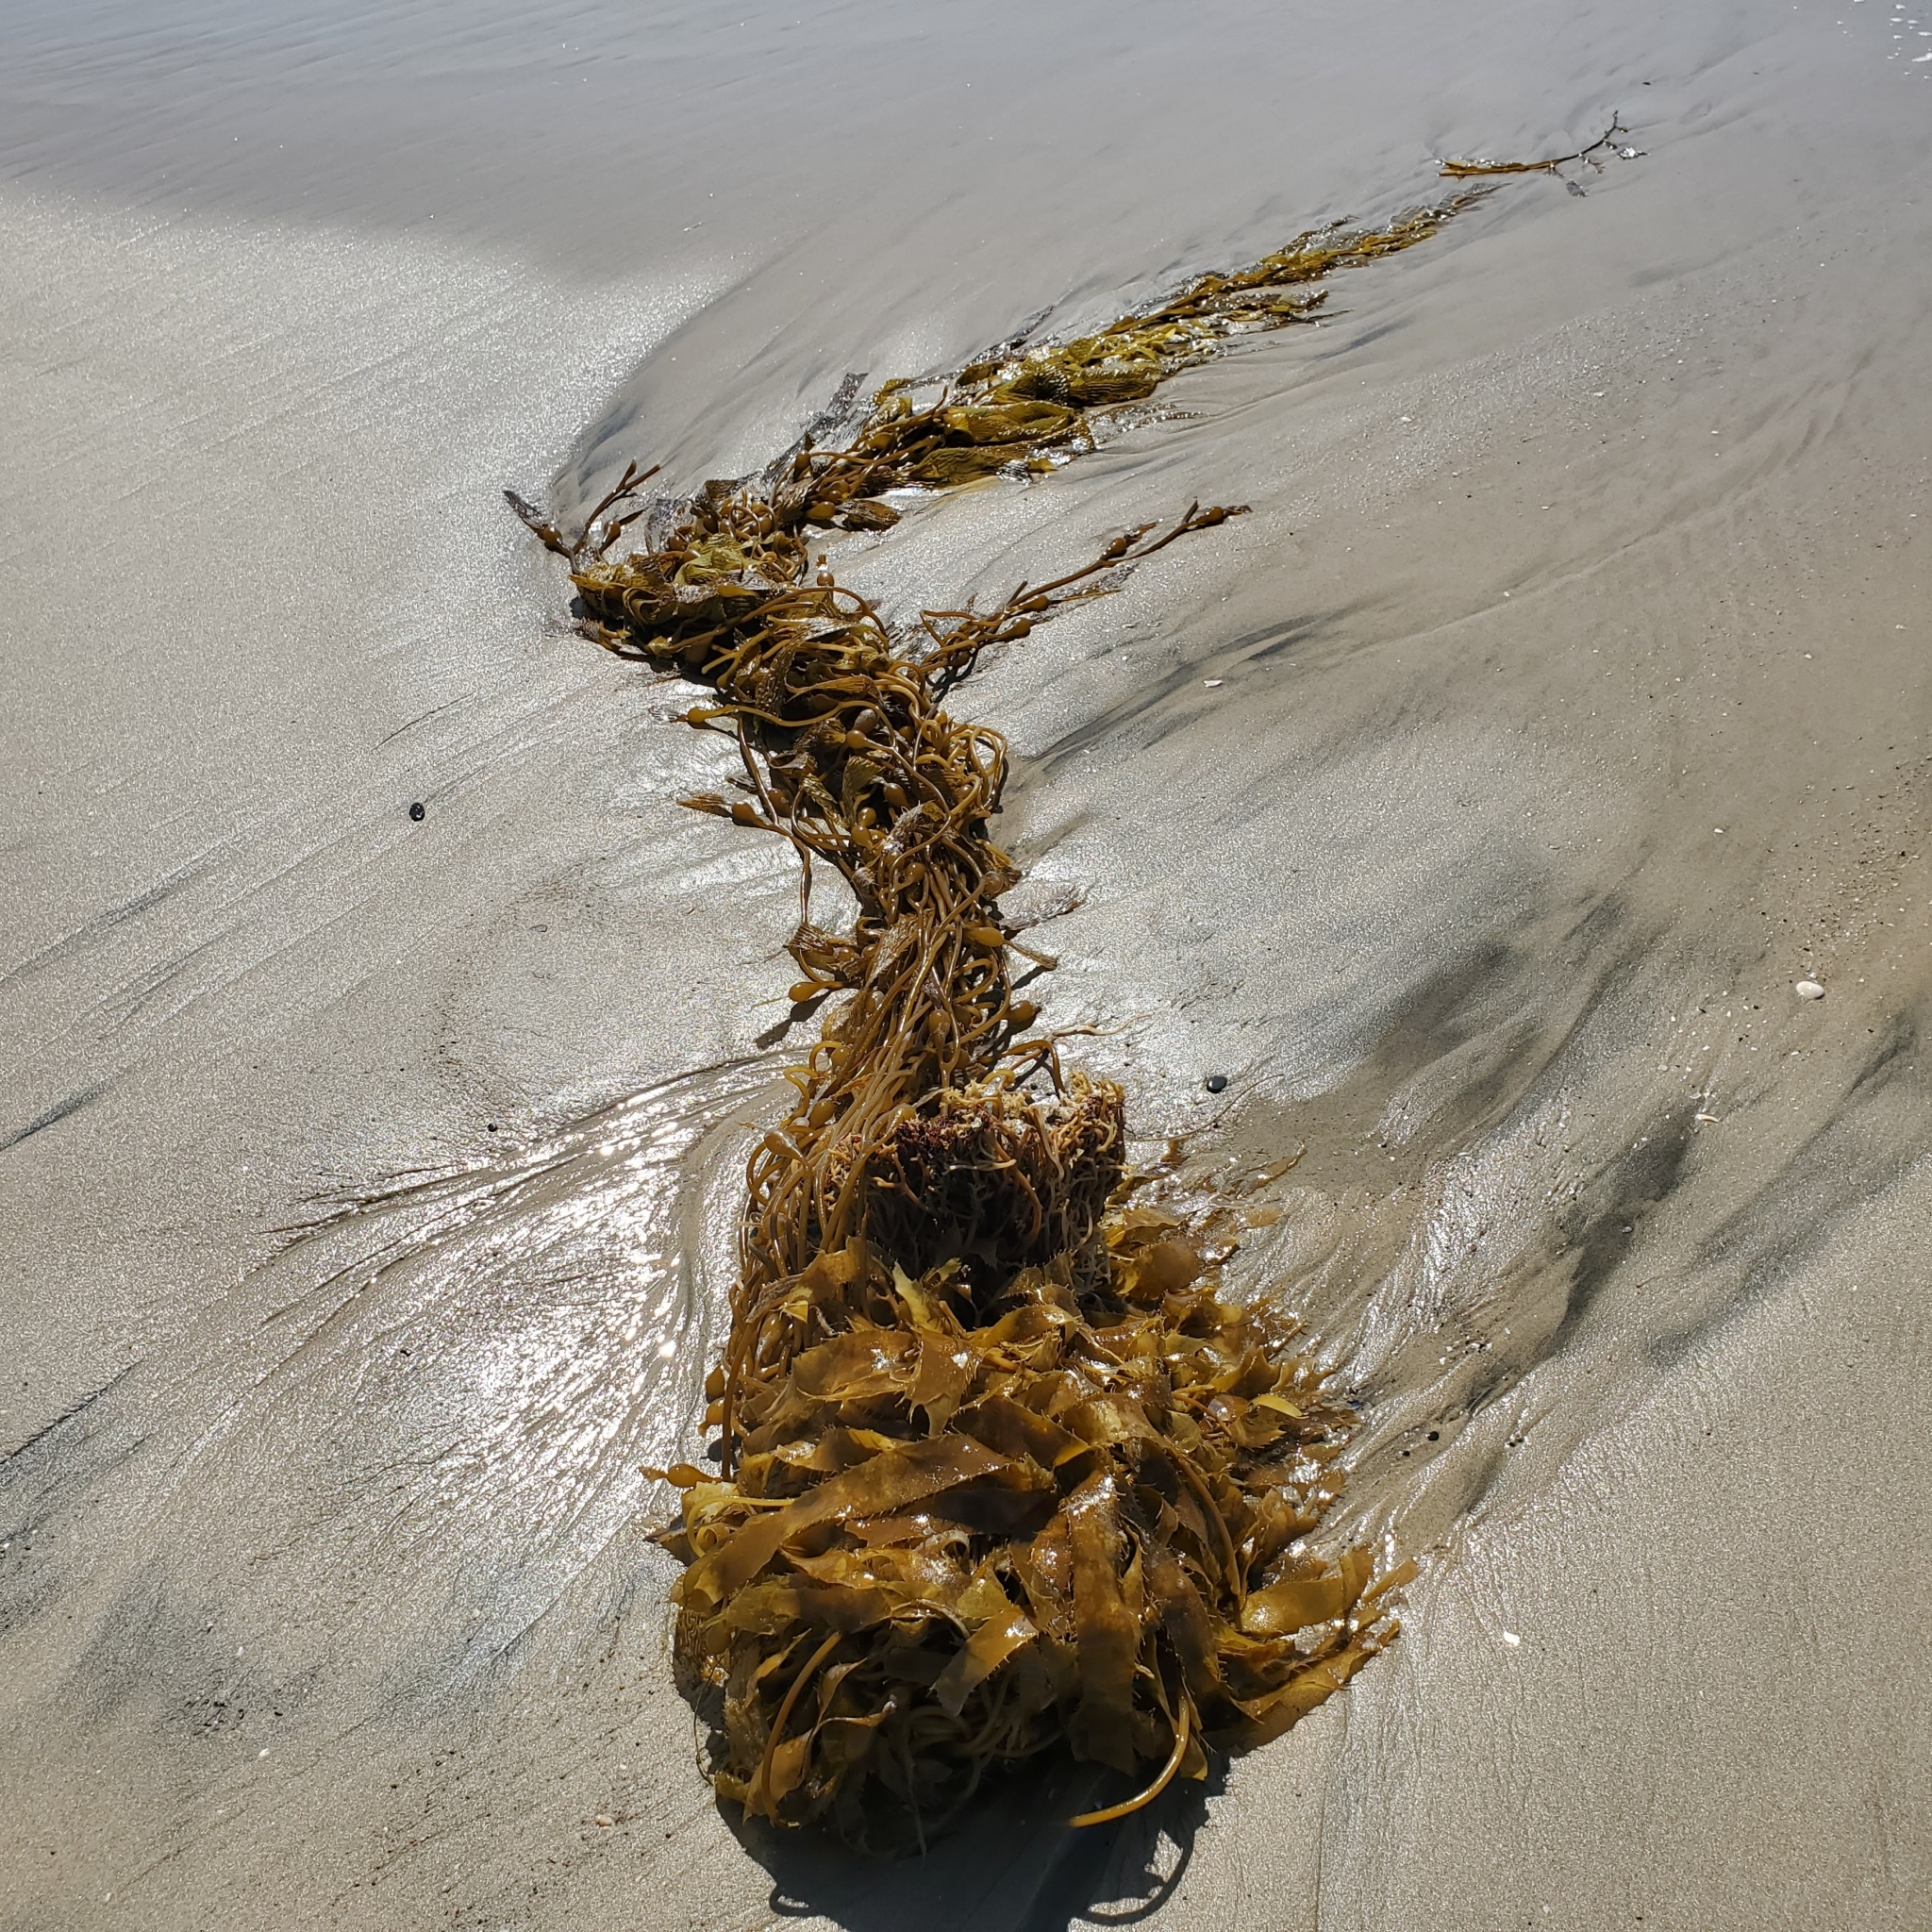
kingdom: Chromista
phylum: Ochrophyta
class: Phaeophyceae
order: Laminariales
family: Laminariaceae
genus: Macrocystis
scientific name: Macrocystis pyrifera
